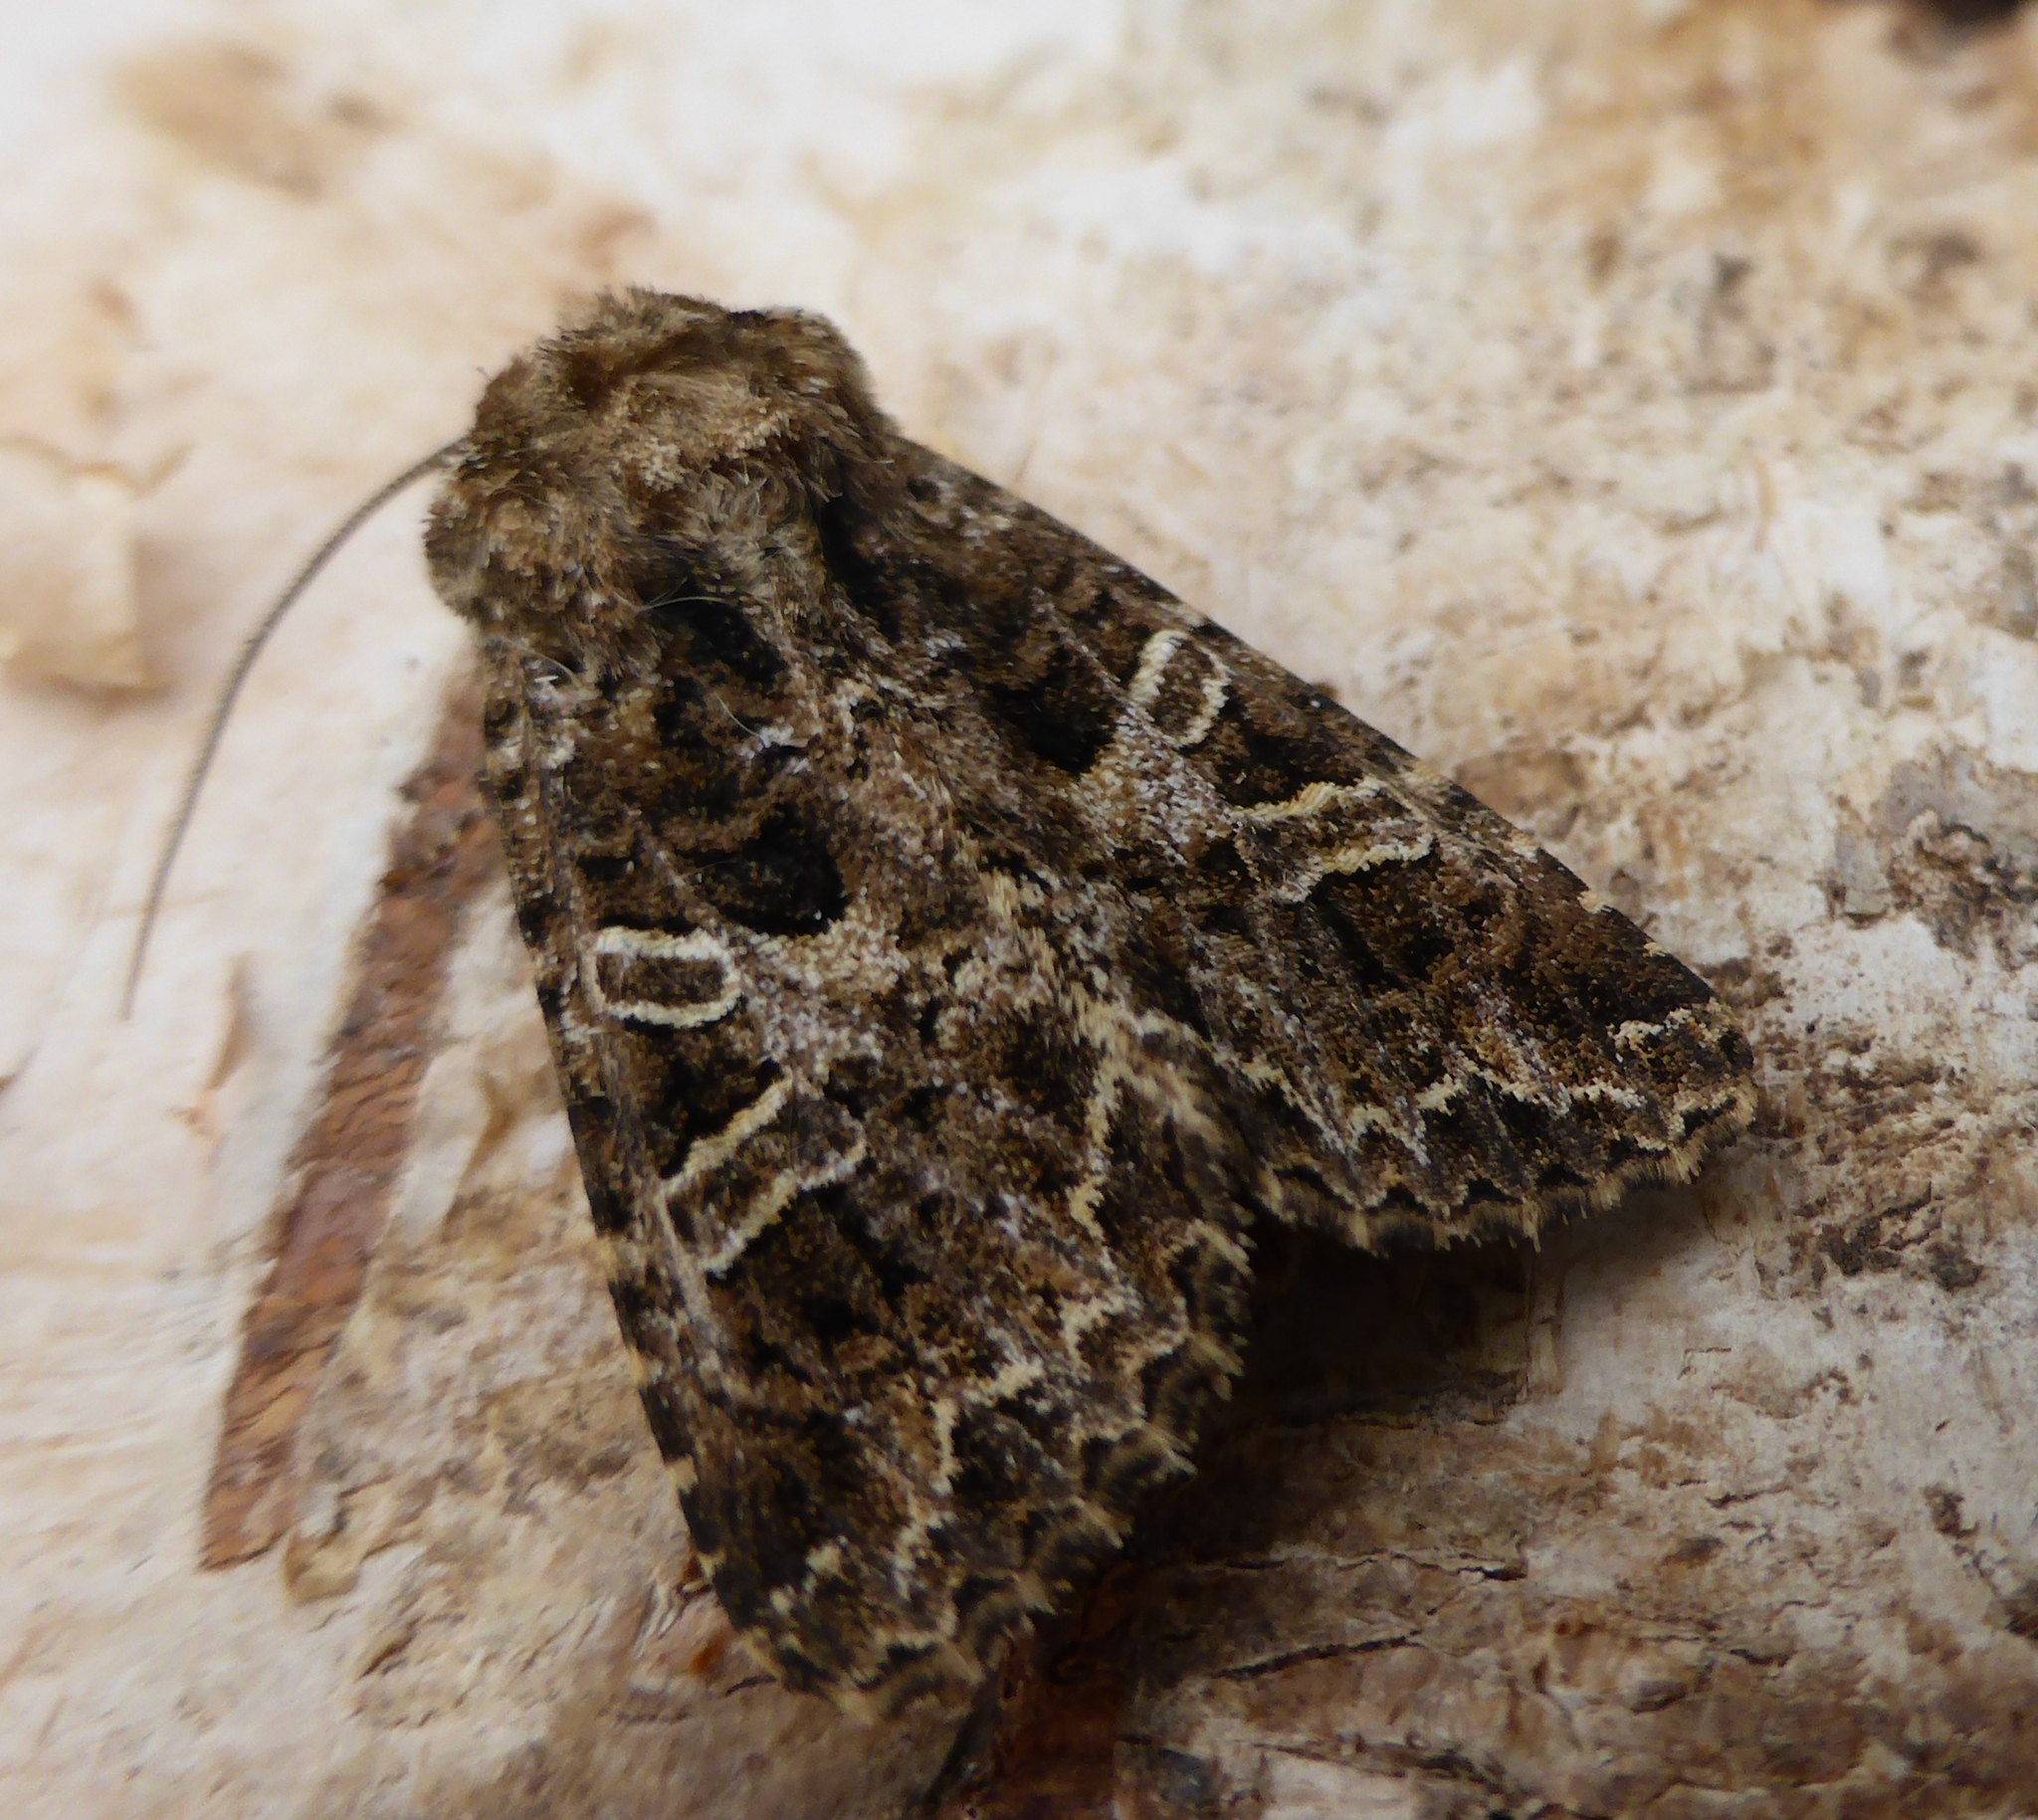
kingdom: Animalia
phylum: Arthropoda
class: Insecta
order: Lepidoptera
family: Noctuidae
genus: Hadena
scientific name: Hadena bicruris
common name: Lychnis
